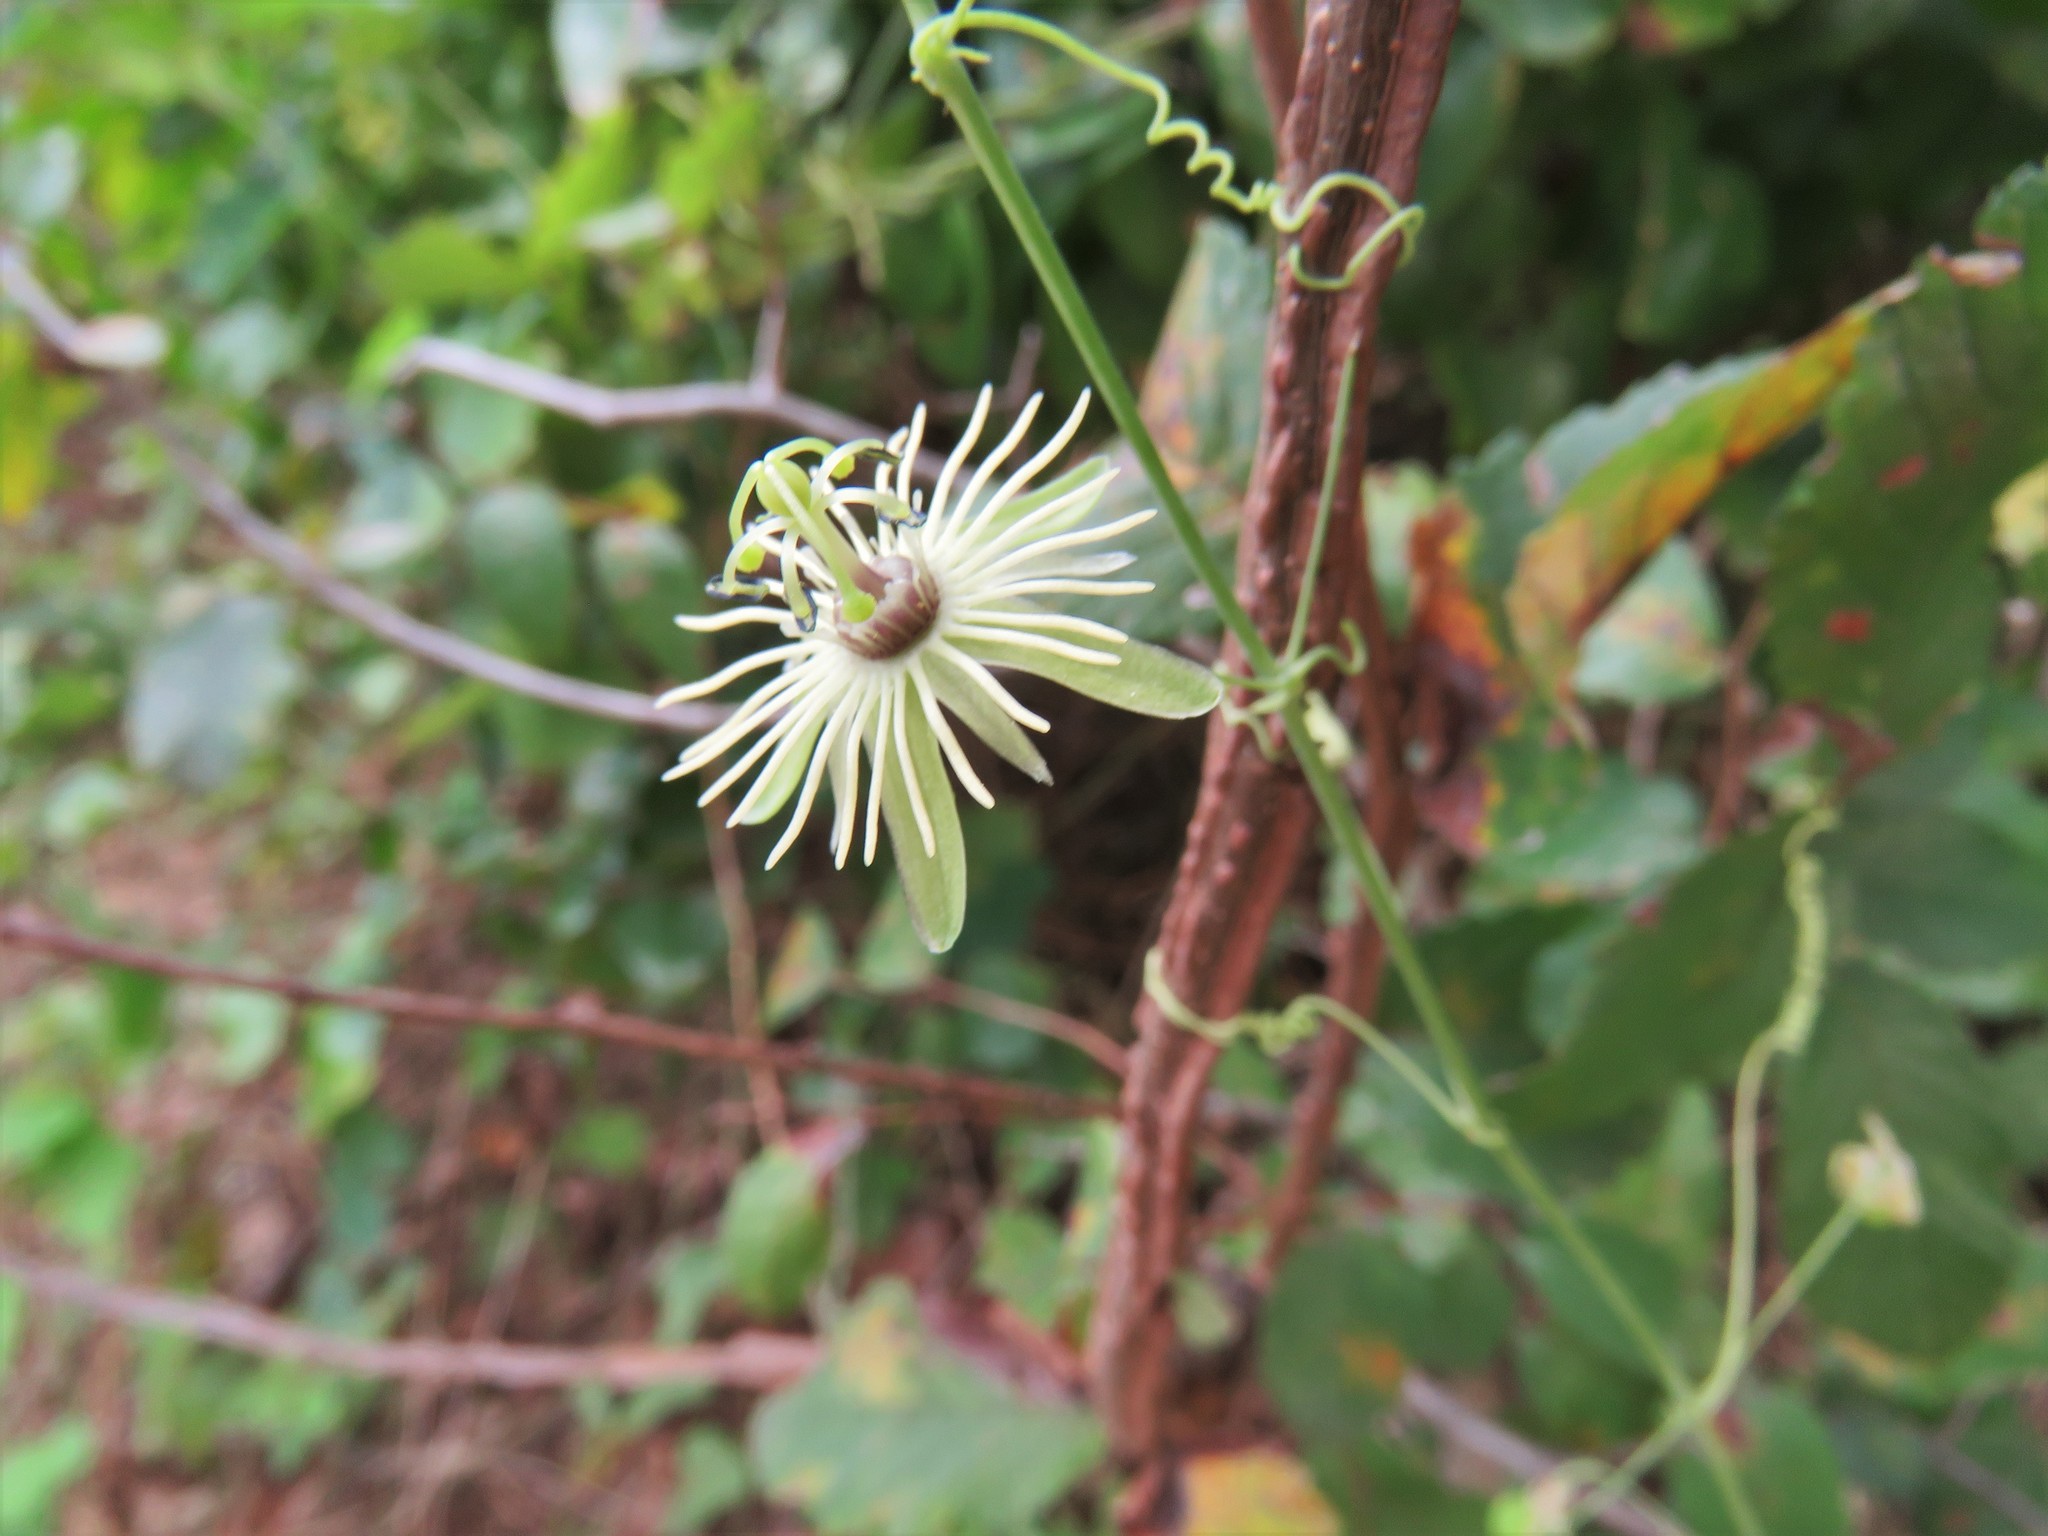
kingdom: Plantae
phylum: Tracheophyta
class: Magnoliopsida
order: Malpighiales
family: Passifloraceae
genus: Passiflora
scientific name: Passiflora lutea
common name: Yellow passionflower
